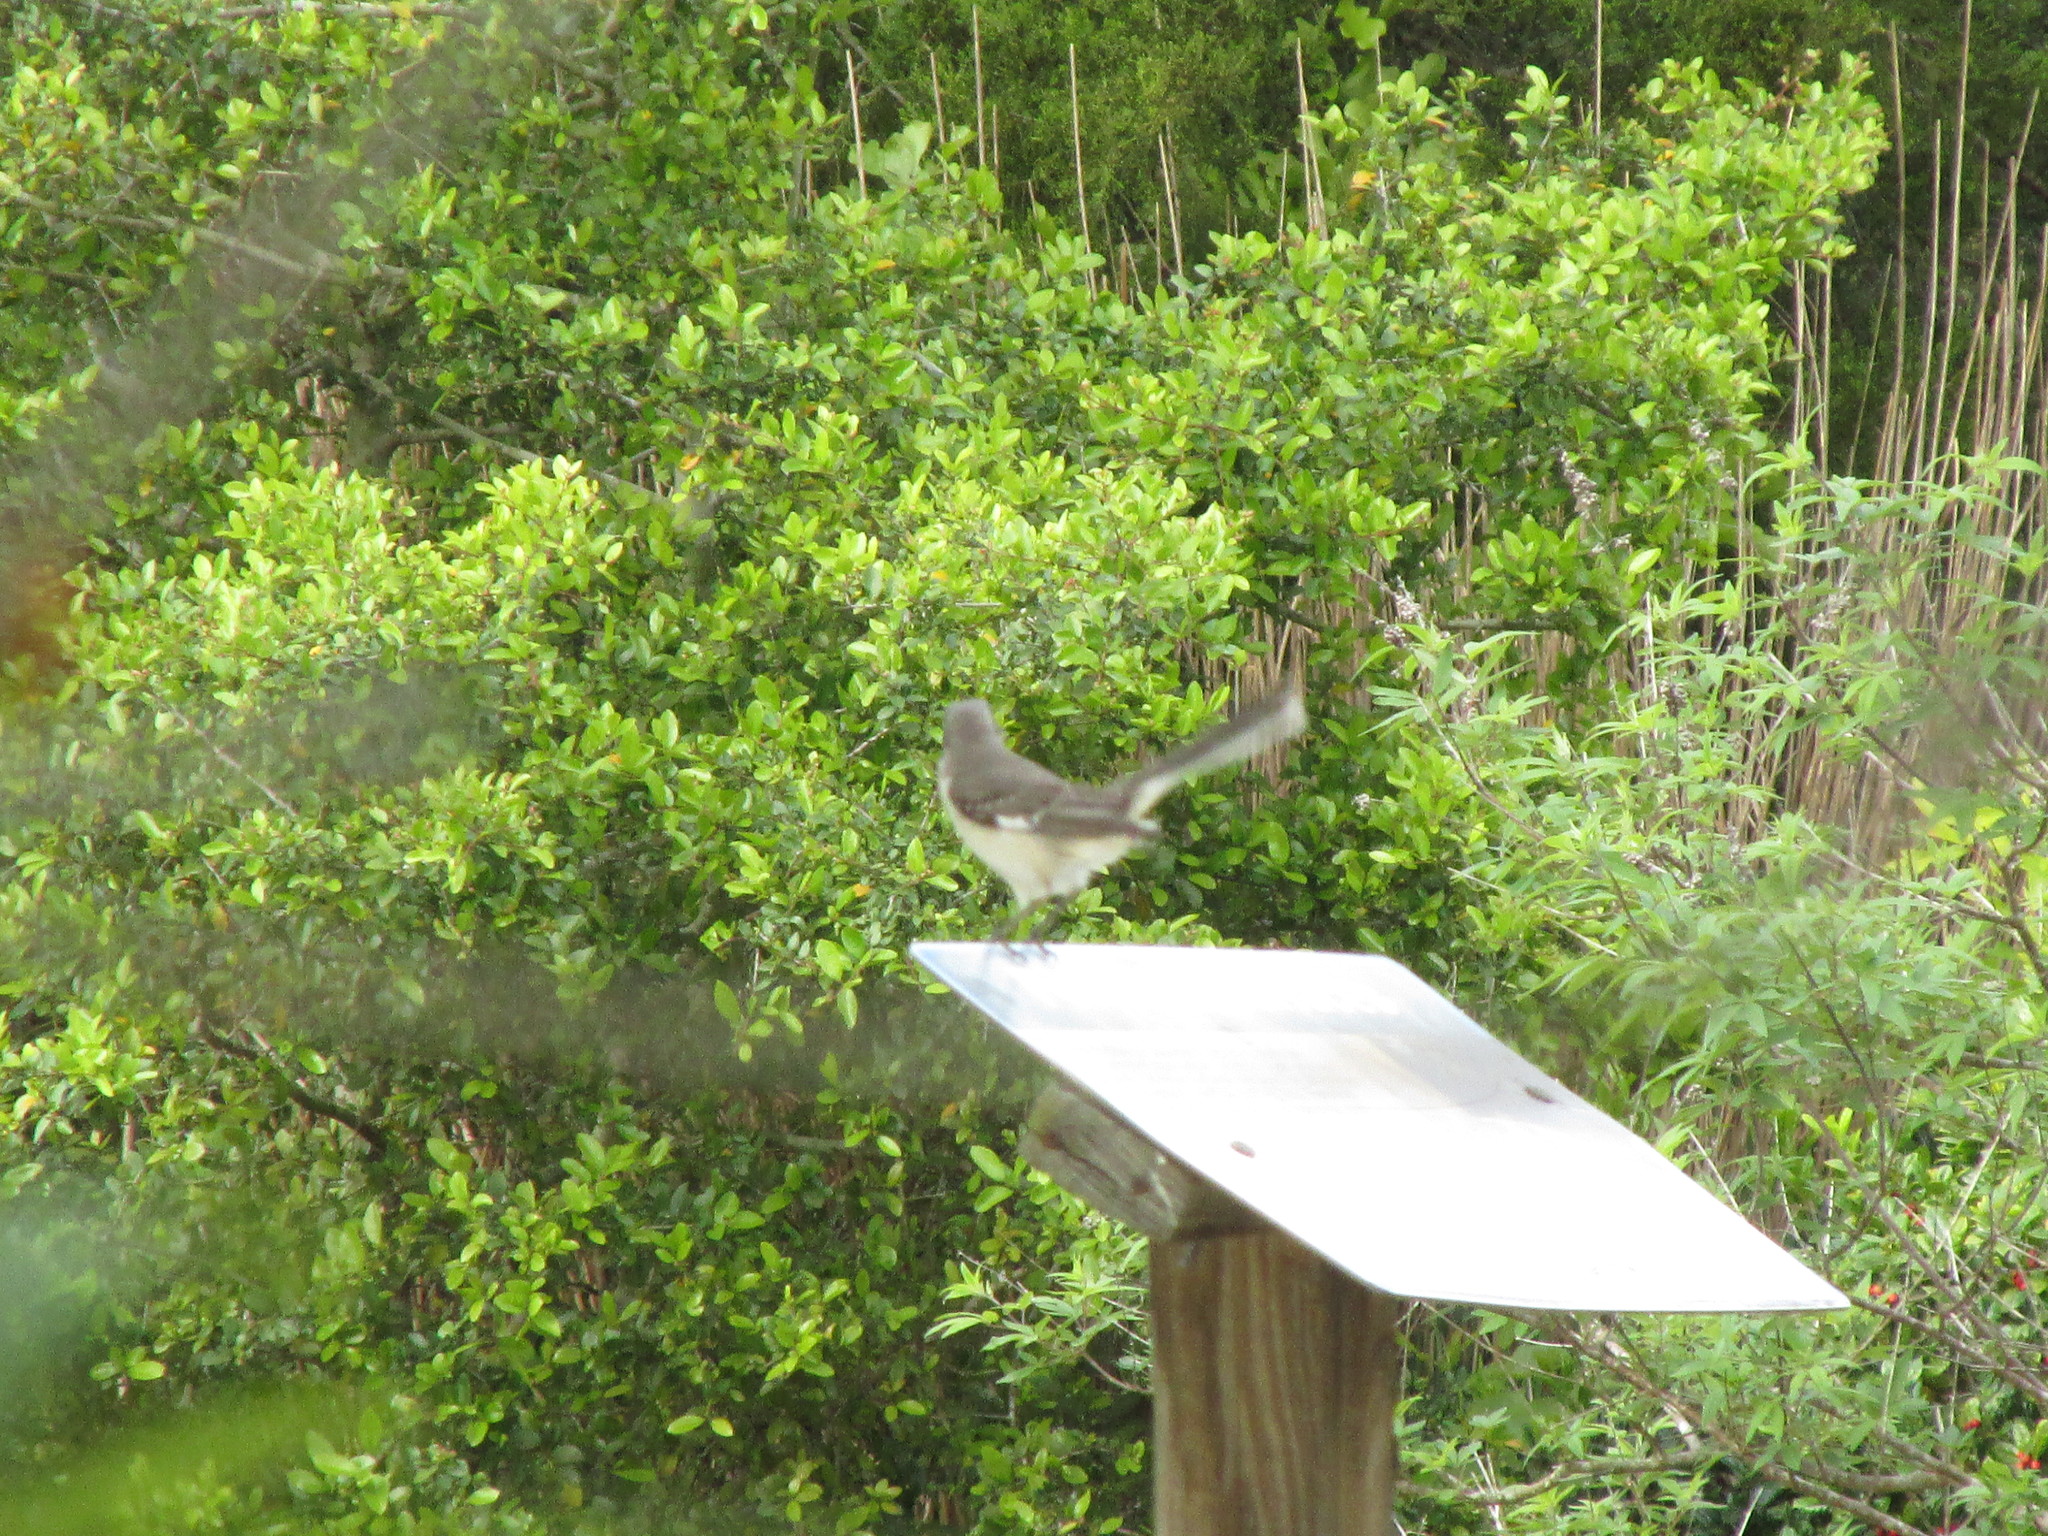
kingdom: Animalia
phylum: Chordata
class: Aves
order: Passeriformes
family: Mimidae
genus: Mimus
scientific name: Mimus polyglottos
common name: Northern mockingbird
